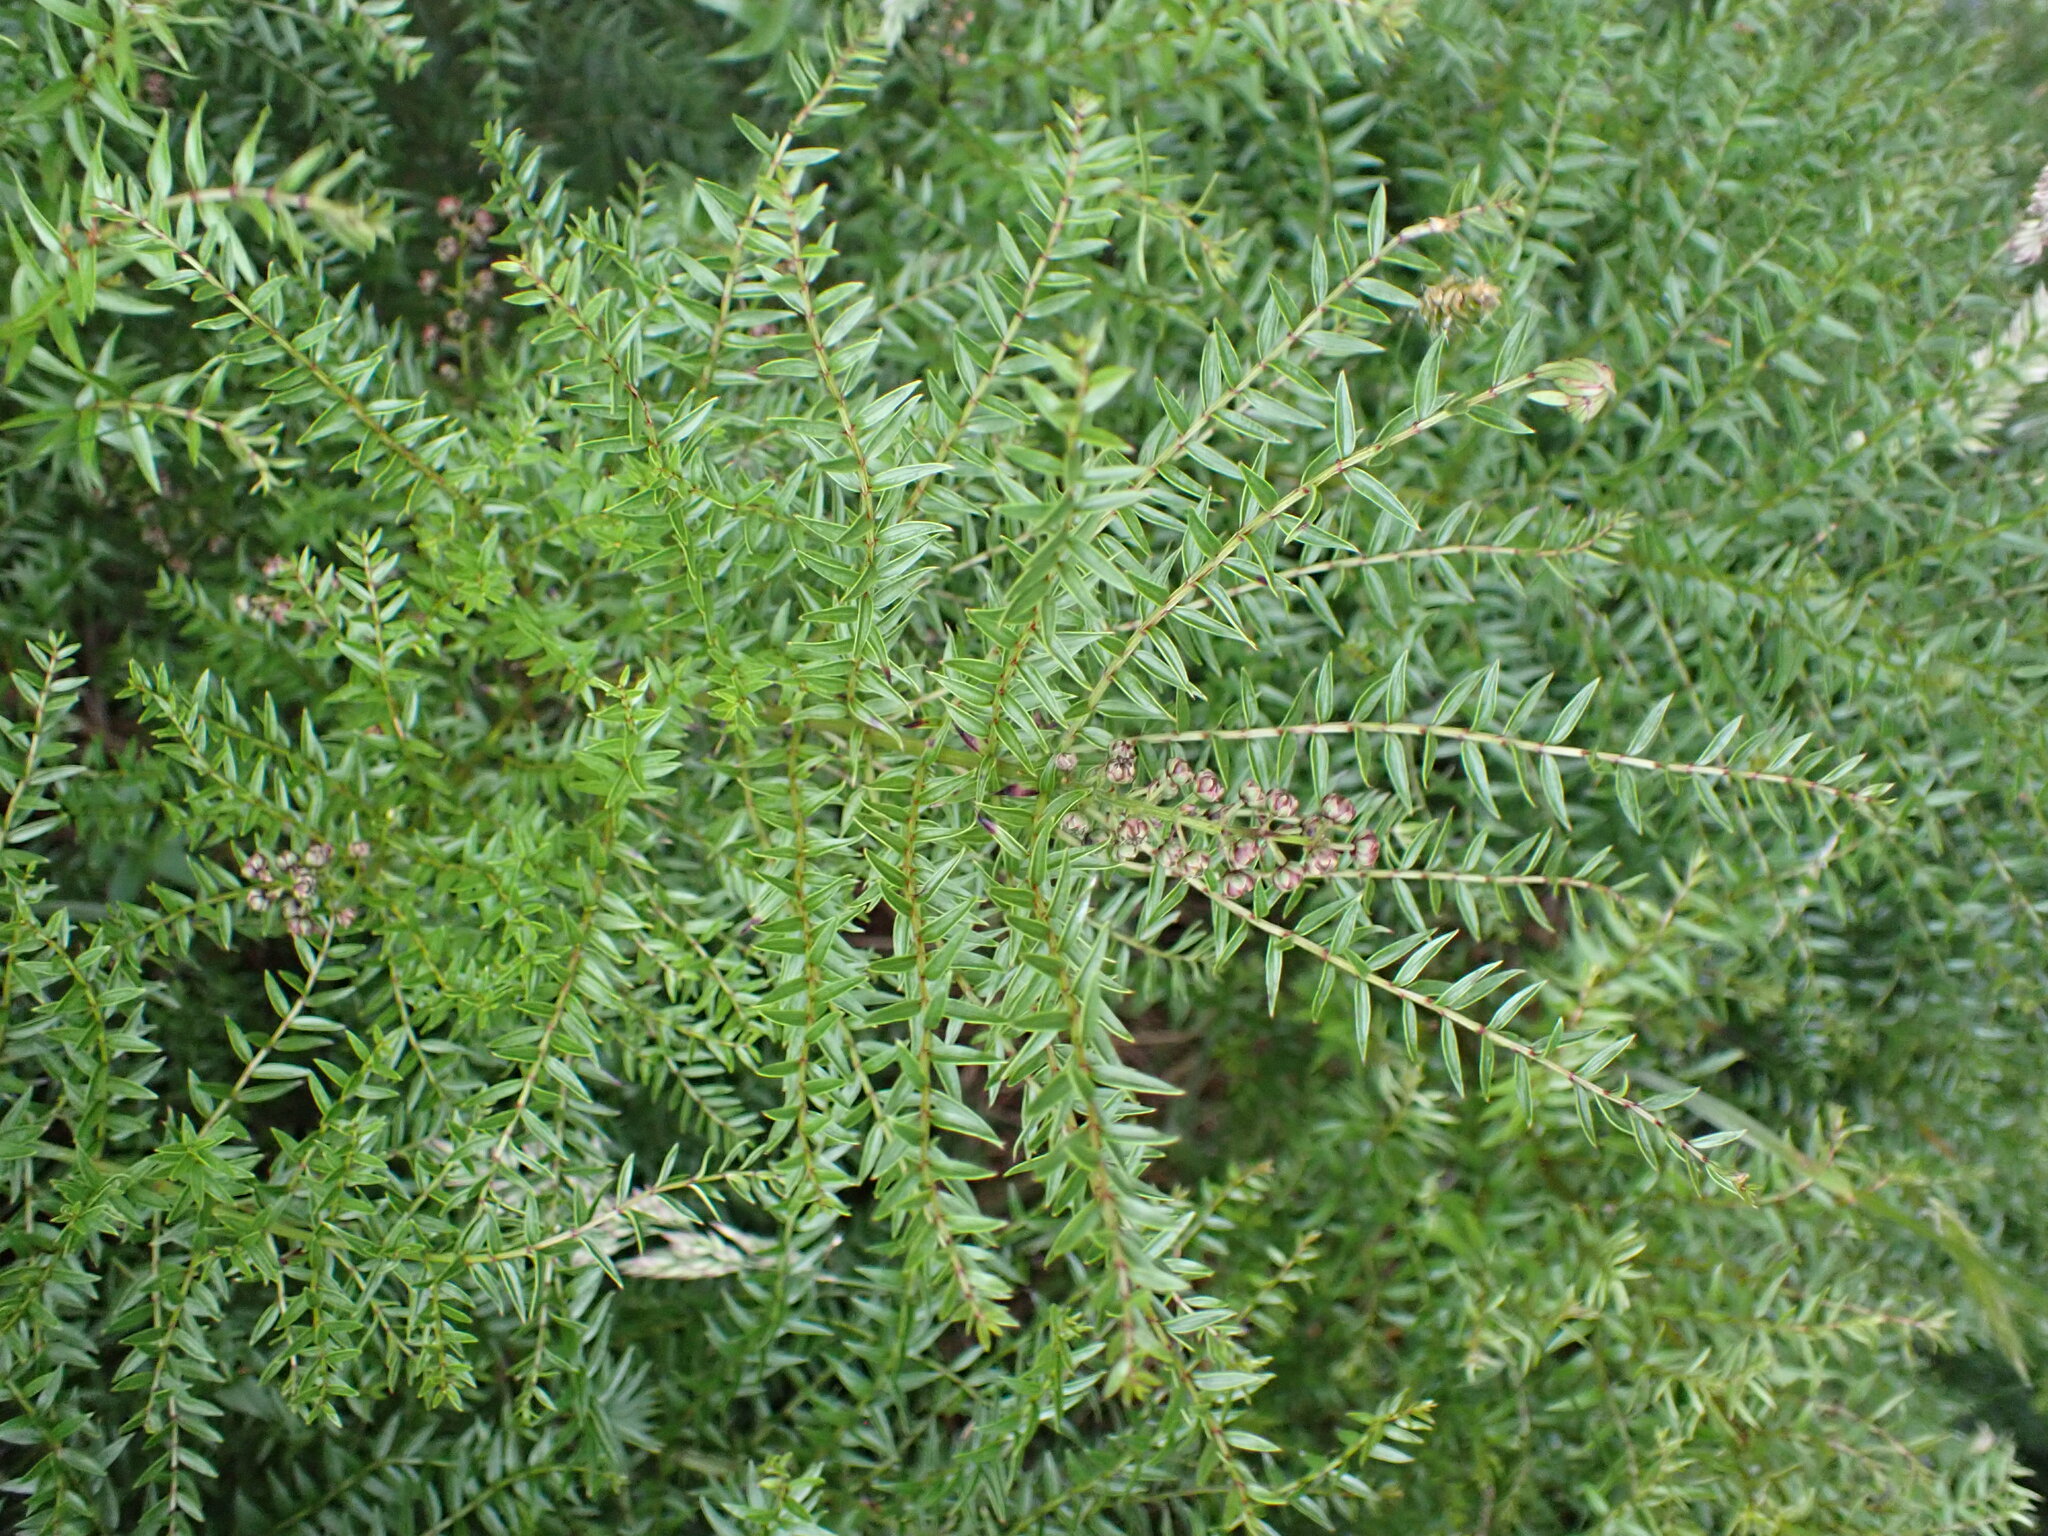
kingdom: Plantae
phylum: Tracheophyta
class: Magnoliopsida
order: Cucurbitales
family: Coriariaceae
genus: Coriaria
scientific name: Coriaria plumosa
